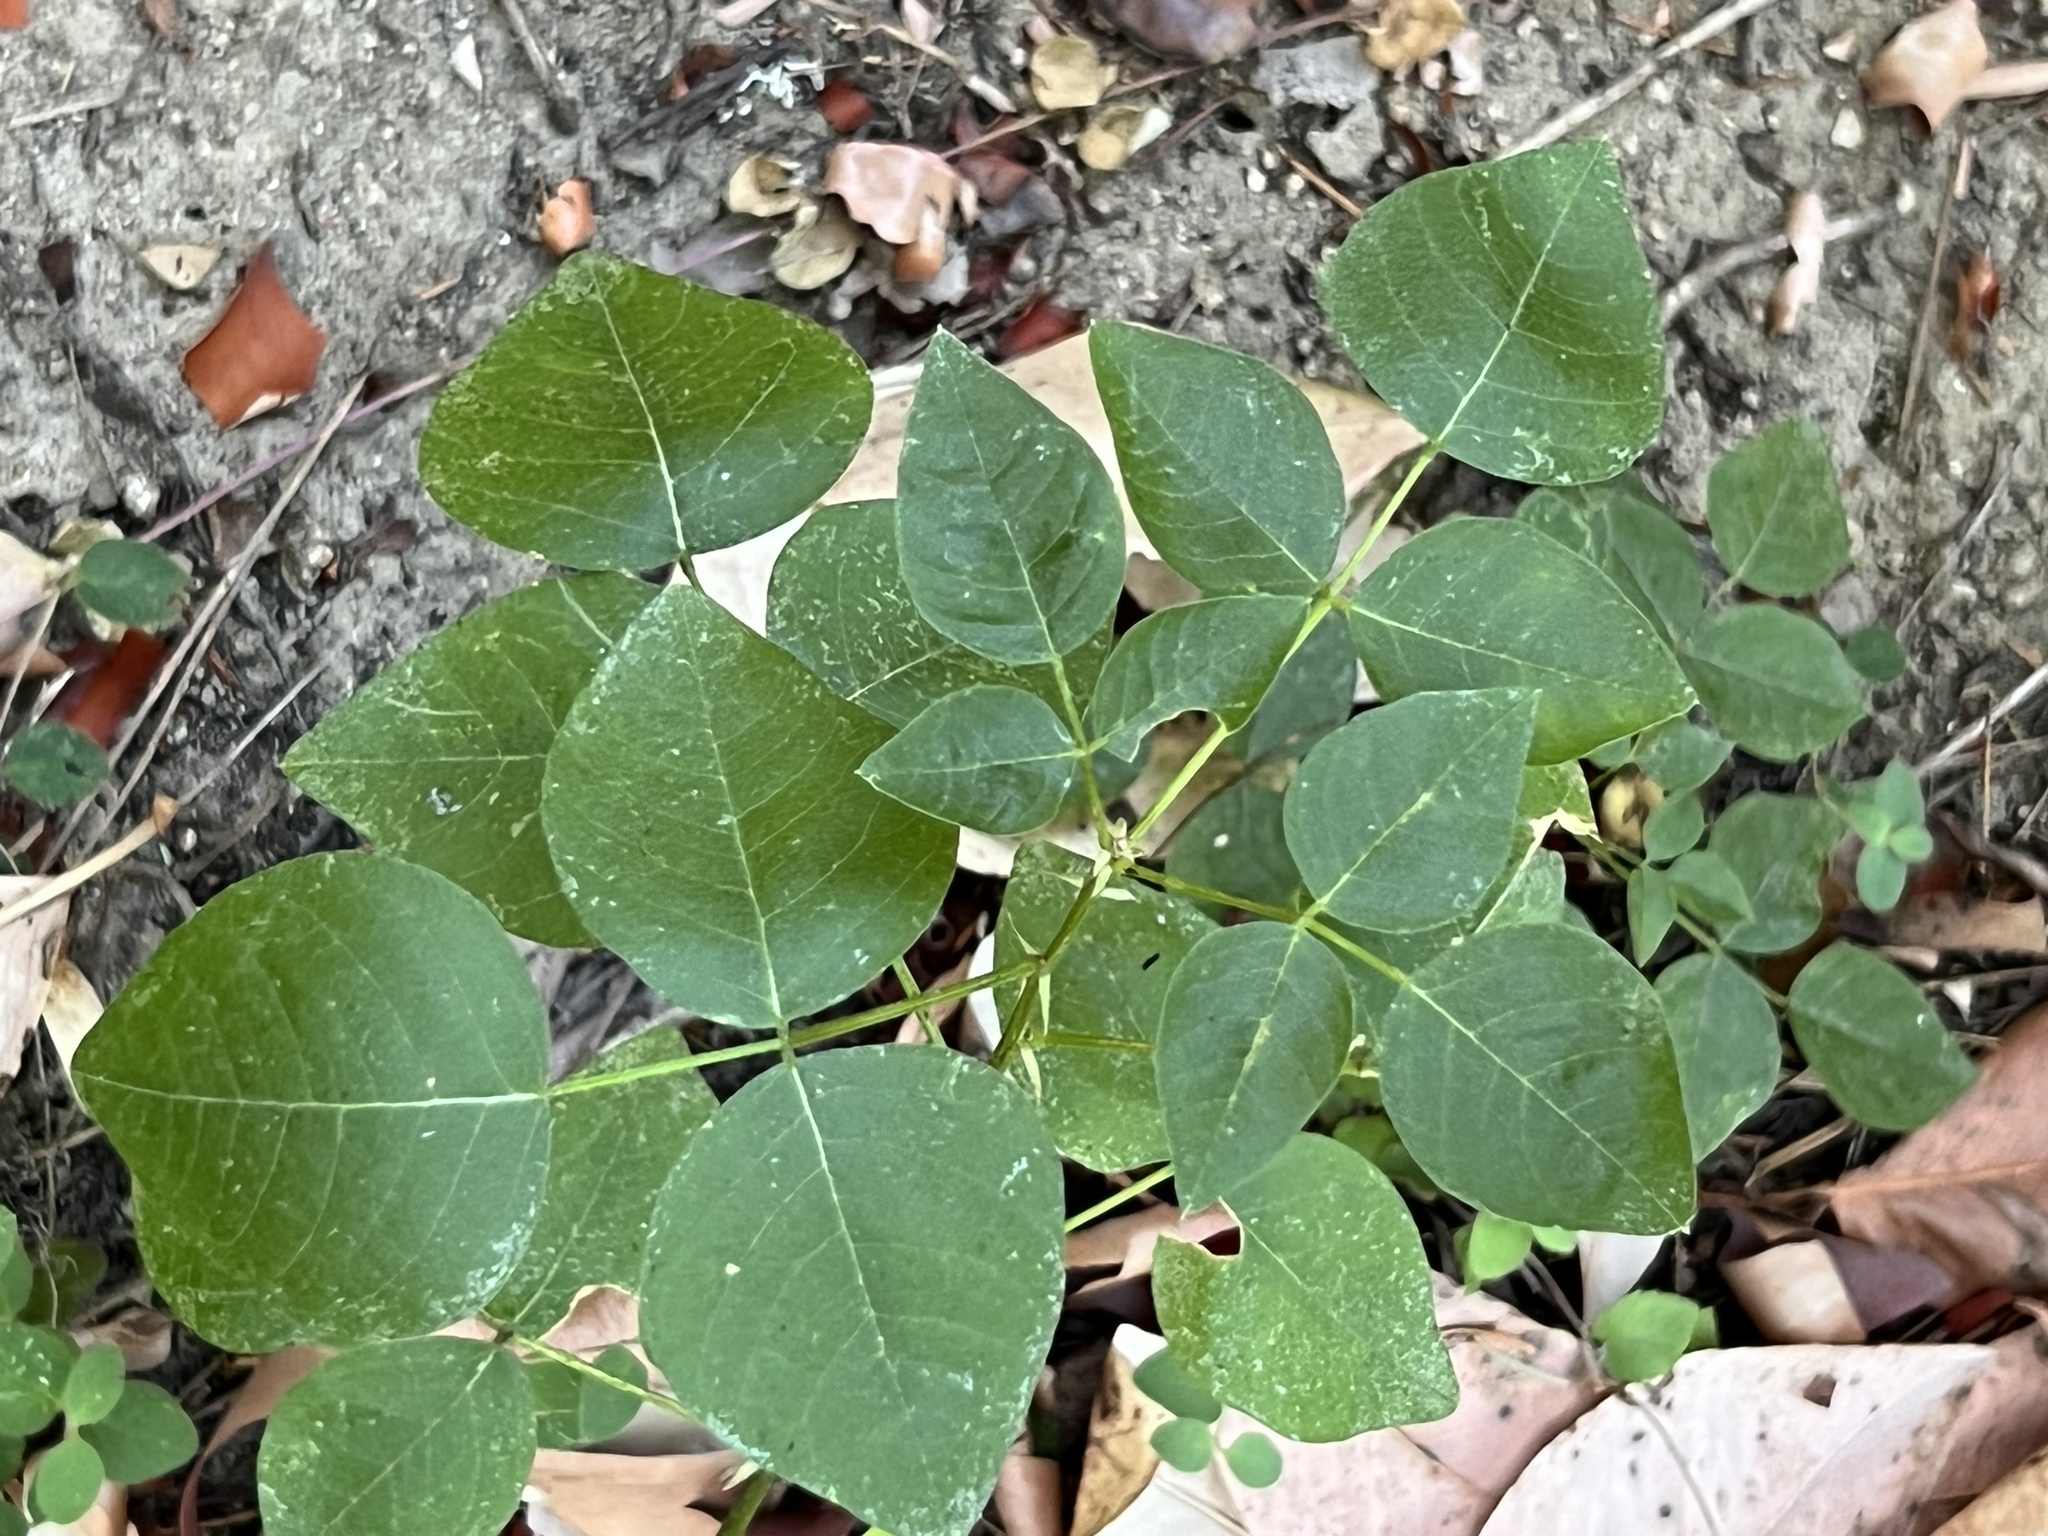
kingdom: Plantae
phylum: Tracheophyta
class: Magnoliopsida
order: Fabales
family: Fabaceae
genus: Rupertia
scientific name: Rupertia physodes
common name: California-tea
